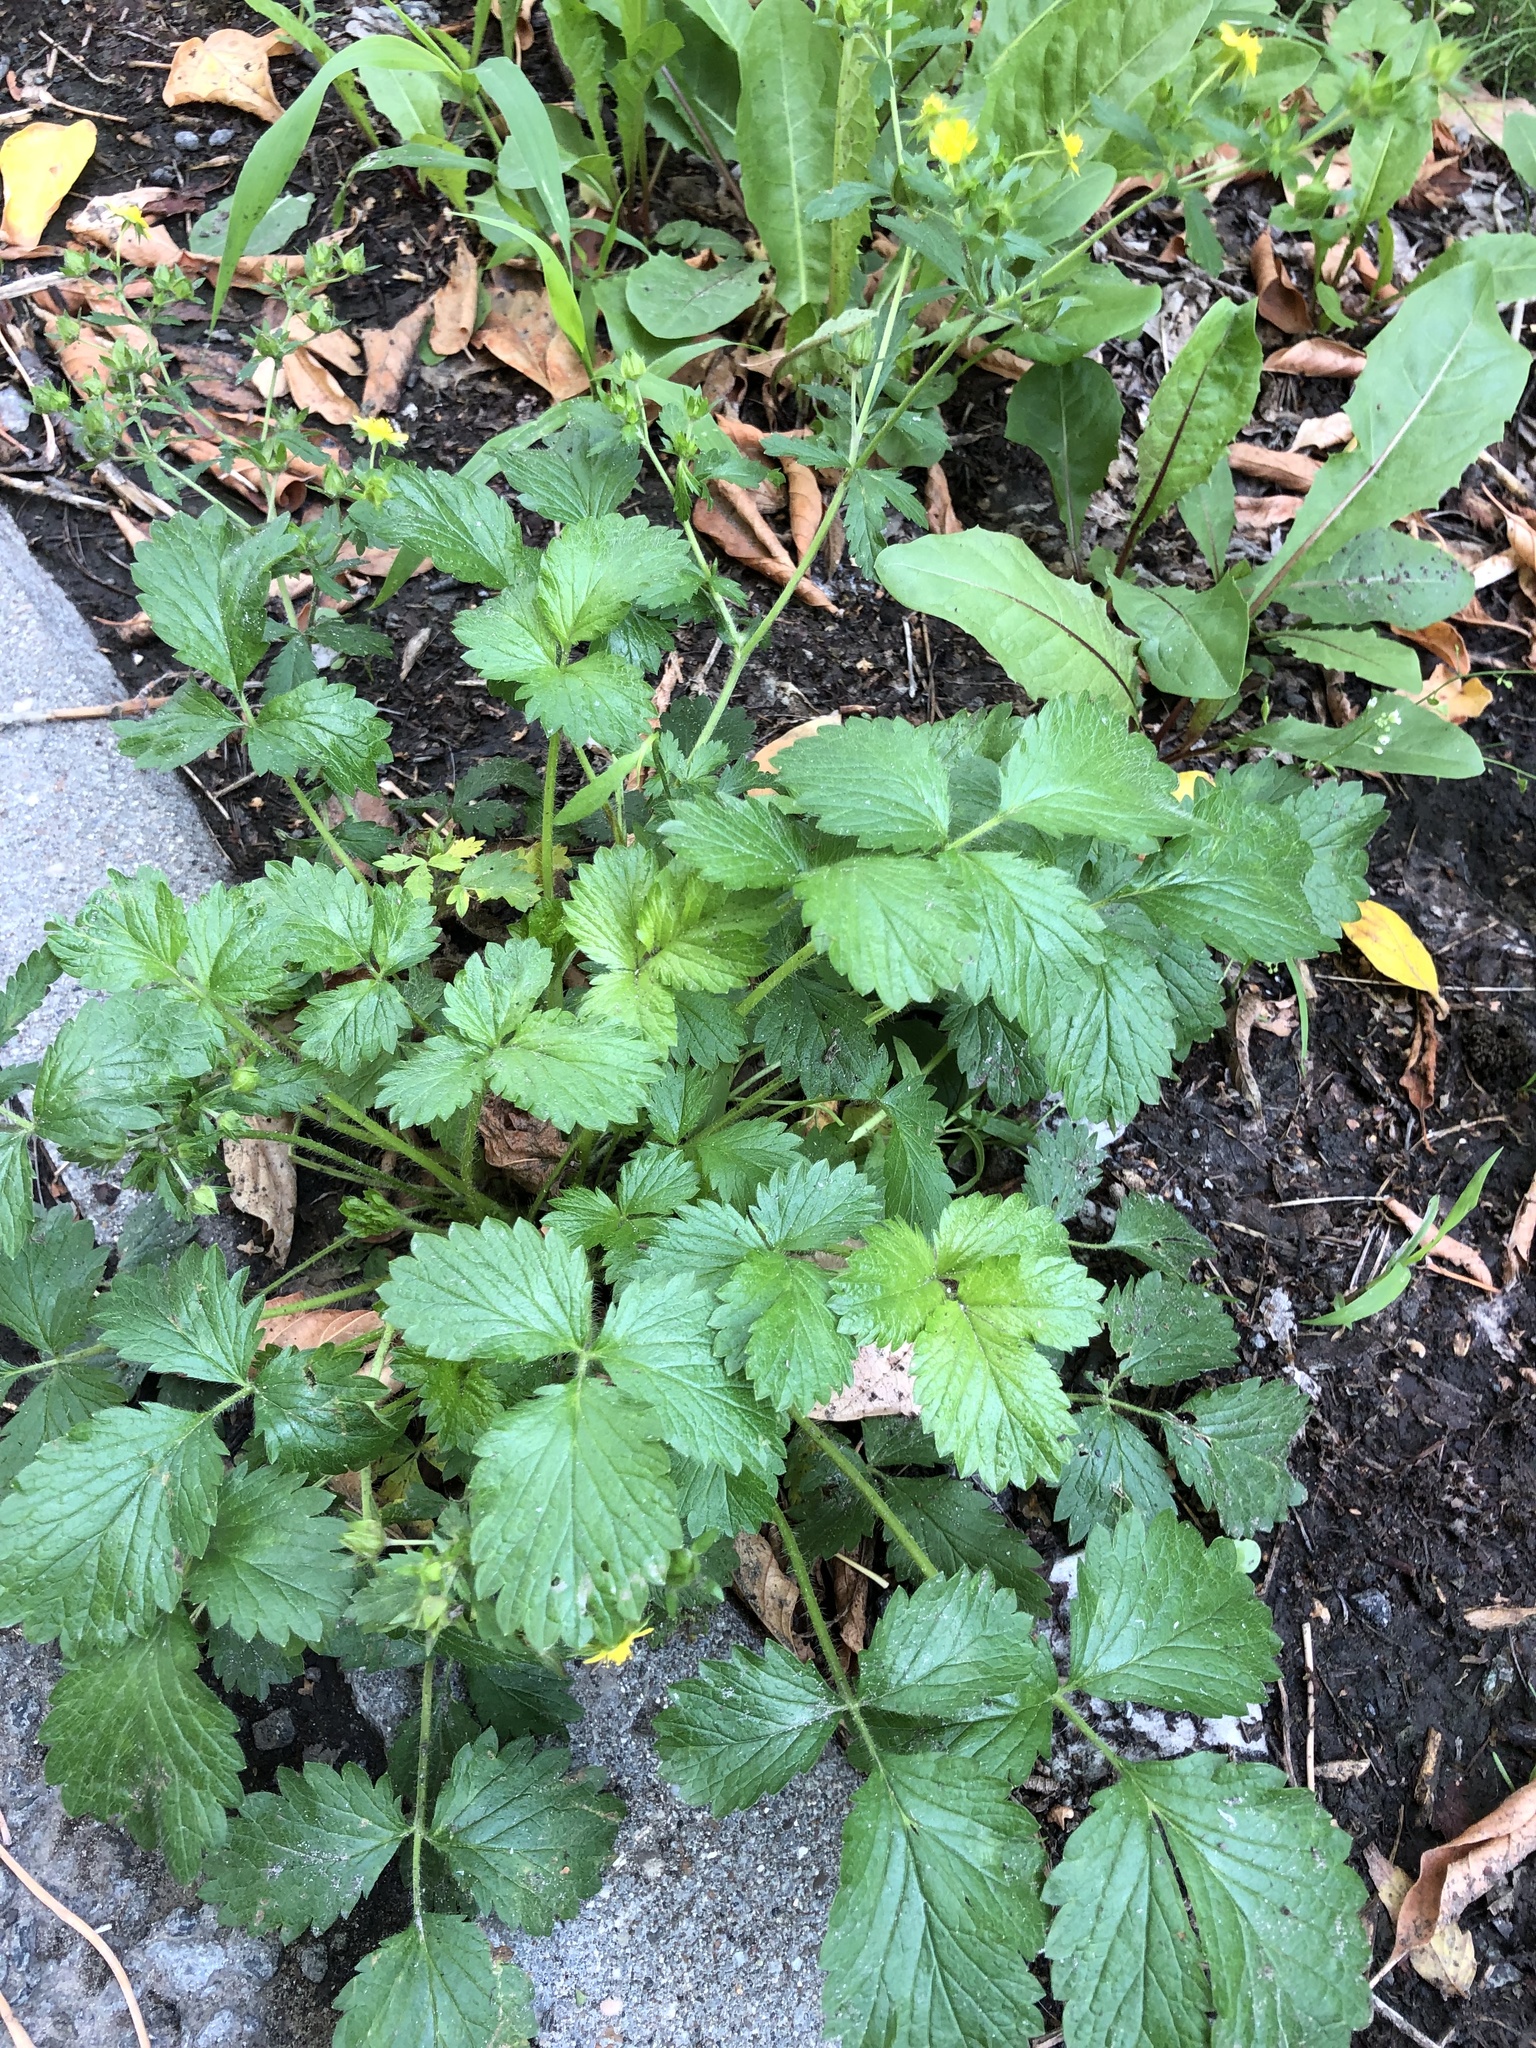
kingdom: Plantae
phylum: Tracheophyta
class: Magnoliopsida
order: Rosales
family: Rosaceae
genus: Potentilla
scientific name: Potentilla norvegica
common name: Ternate-leaved cinquefoil
